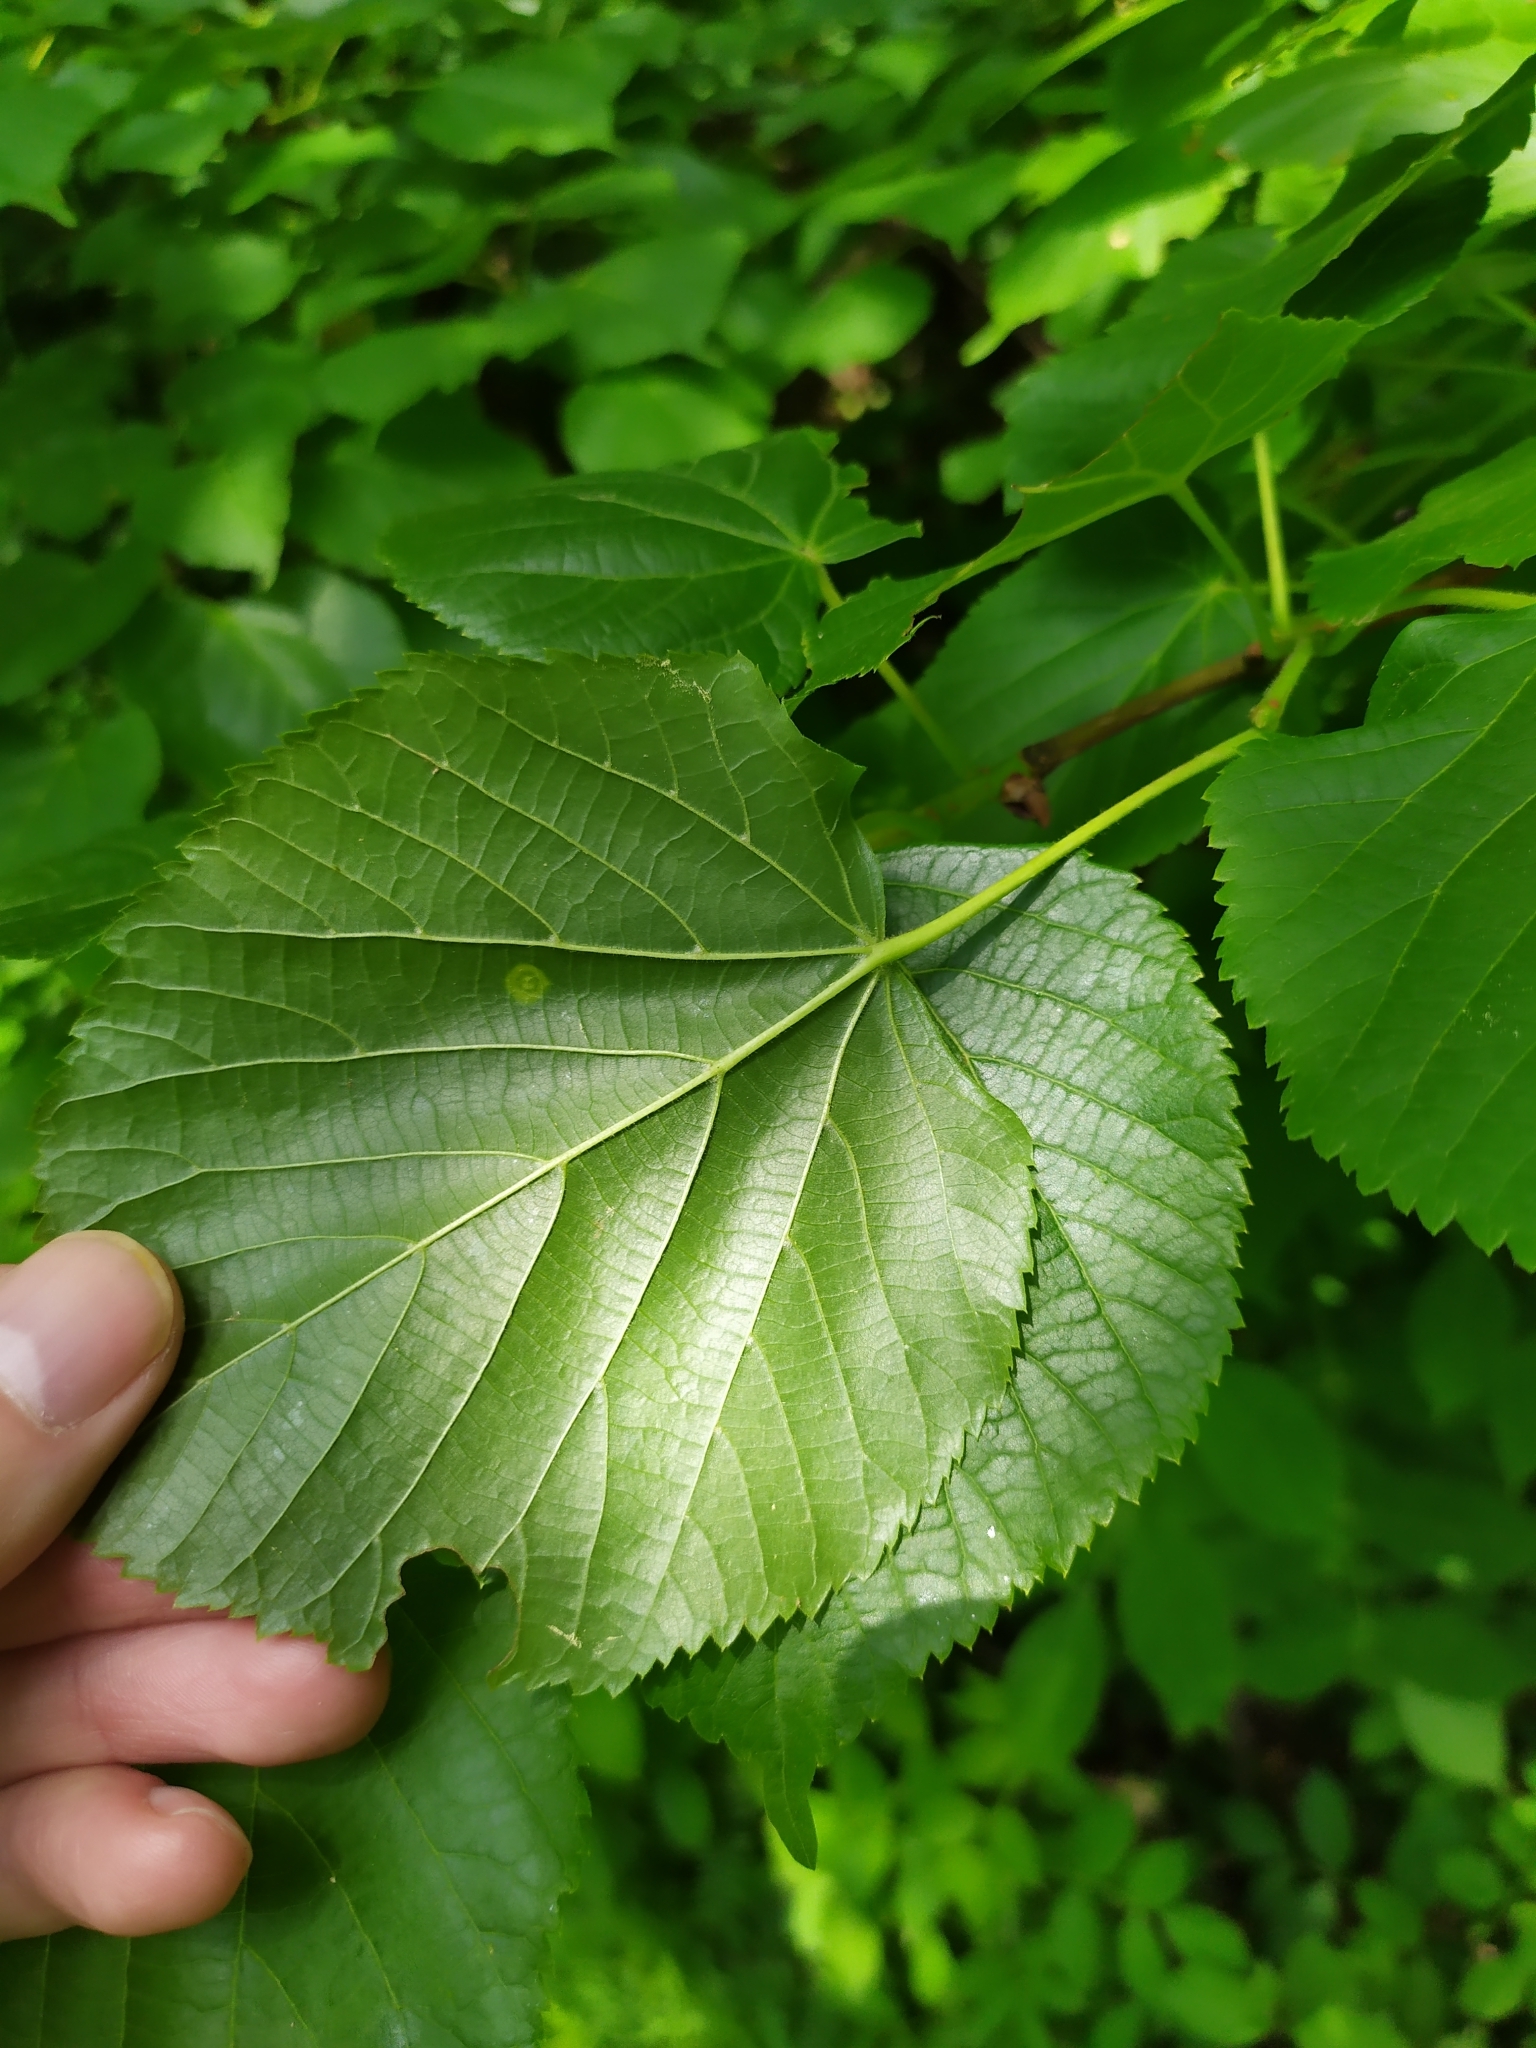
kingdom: Animalia
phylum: Arthropoda
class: Insecta
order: Diptera
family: Cecidomyiidae
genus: Physemocecis
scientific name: Physemocecis hartigi
